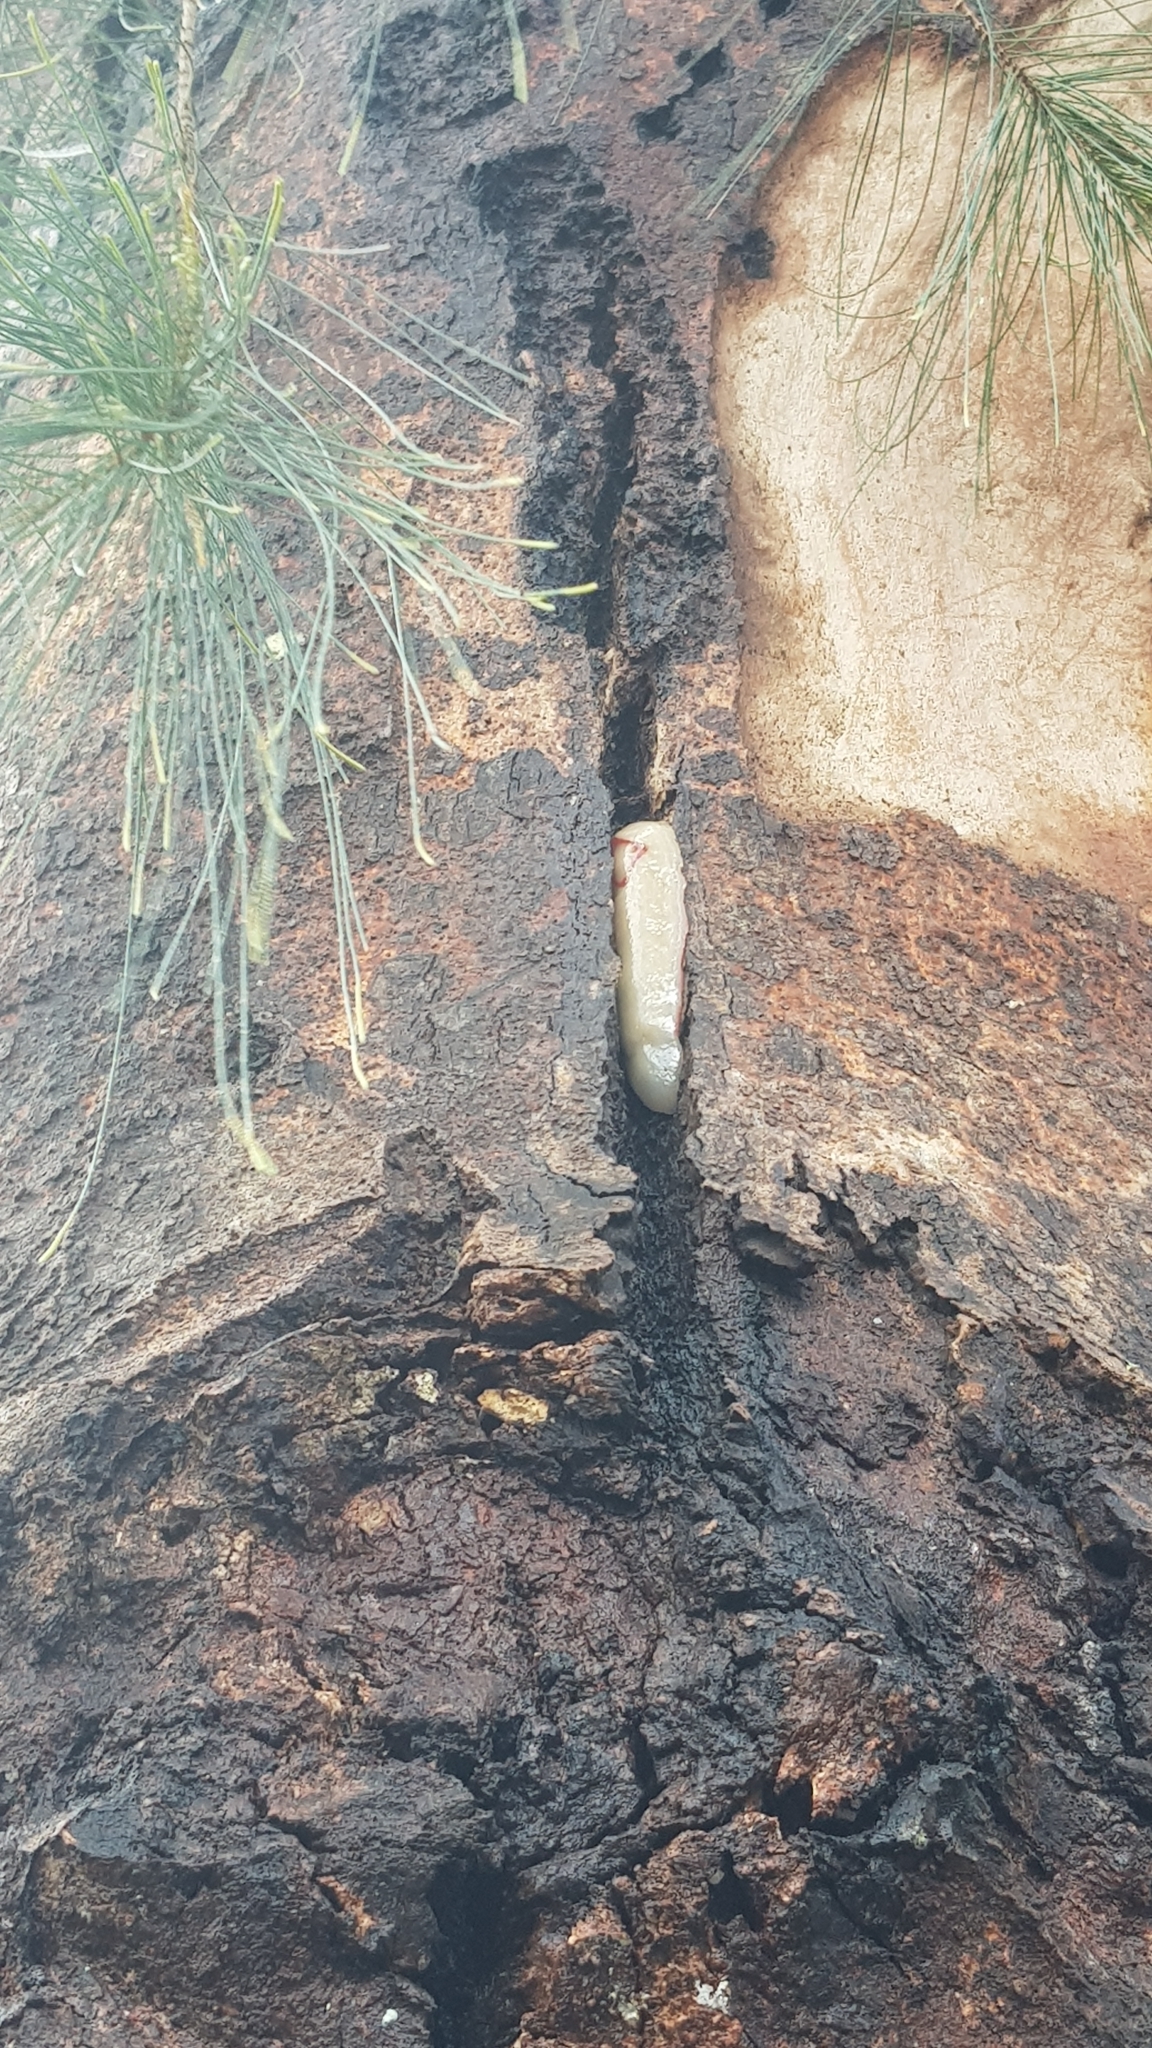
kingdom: Animalia
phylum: Mollusca
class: Gastropoda
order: Stylommatophora
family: Athoracophoridae
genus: Triboniophorus
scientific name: Triboniophorus graeffei
